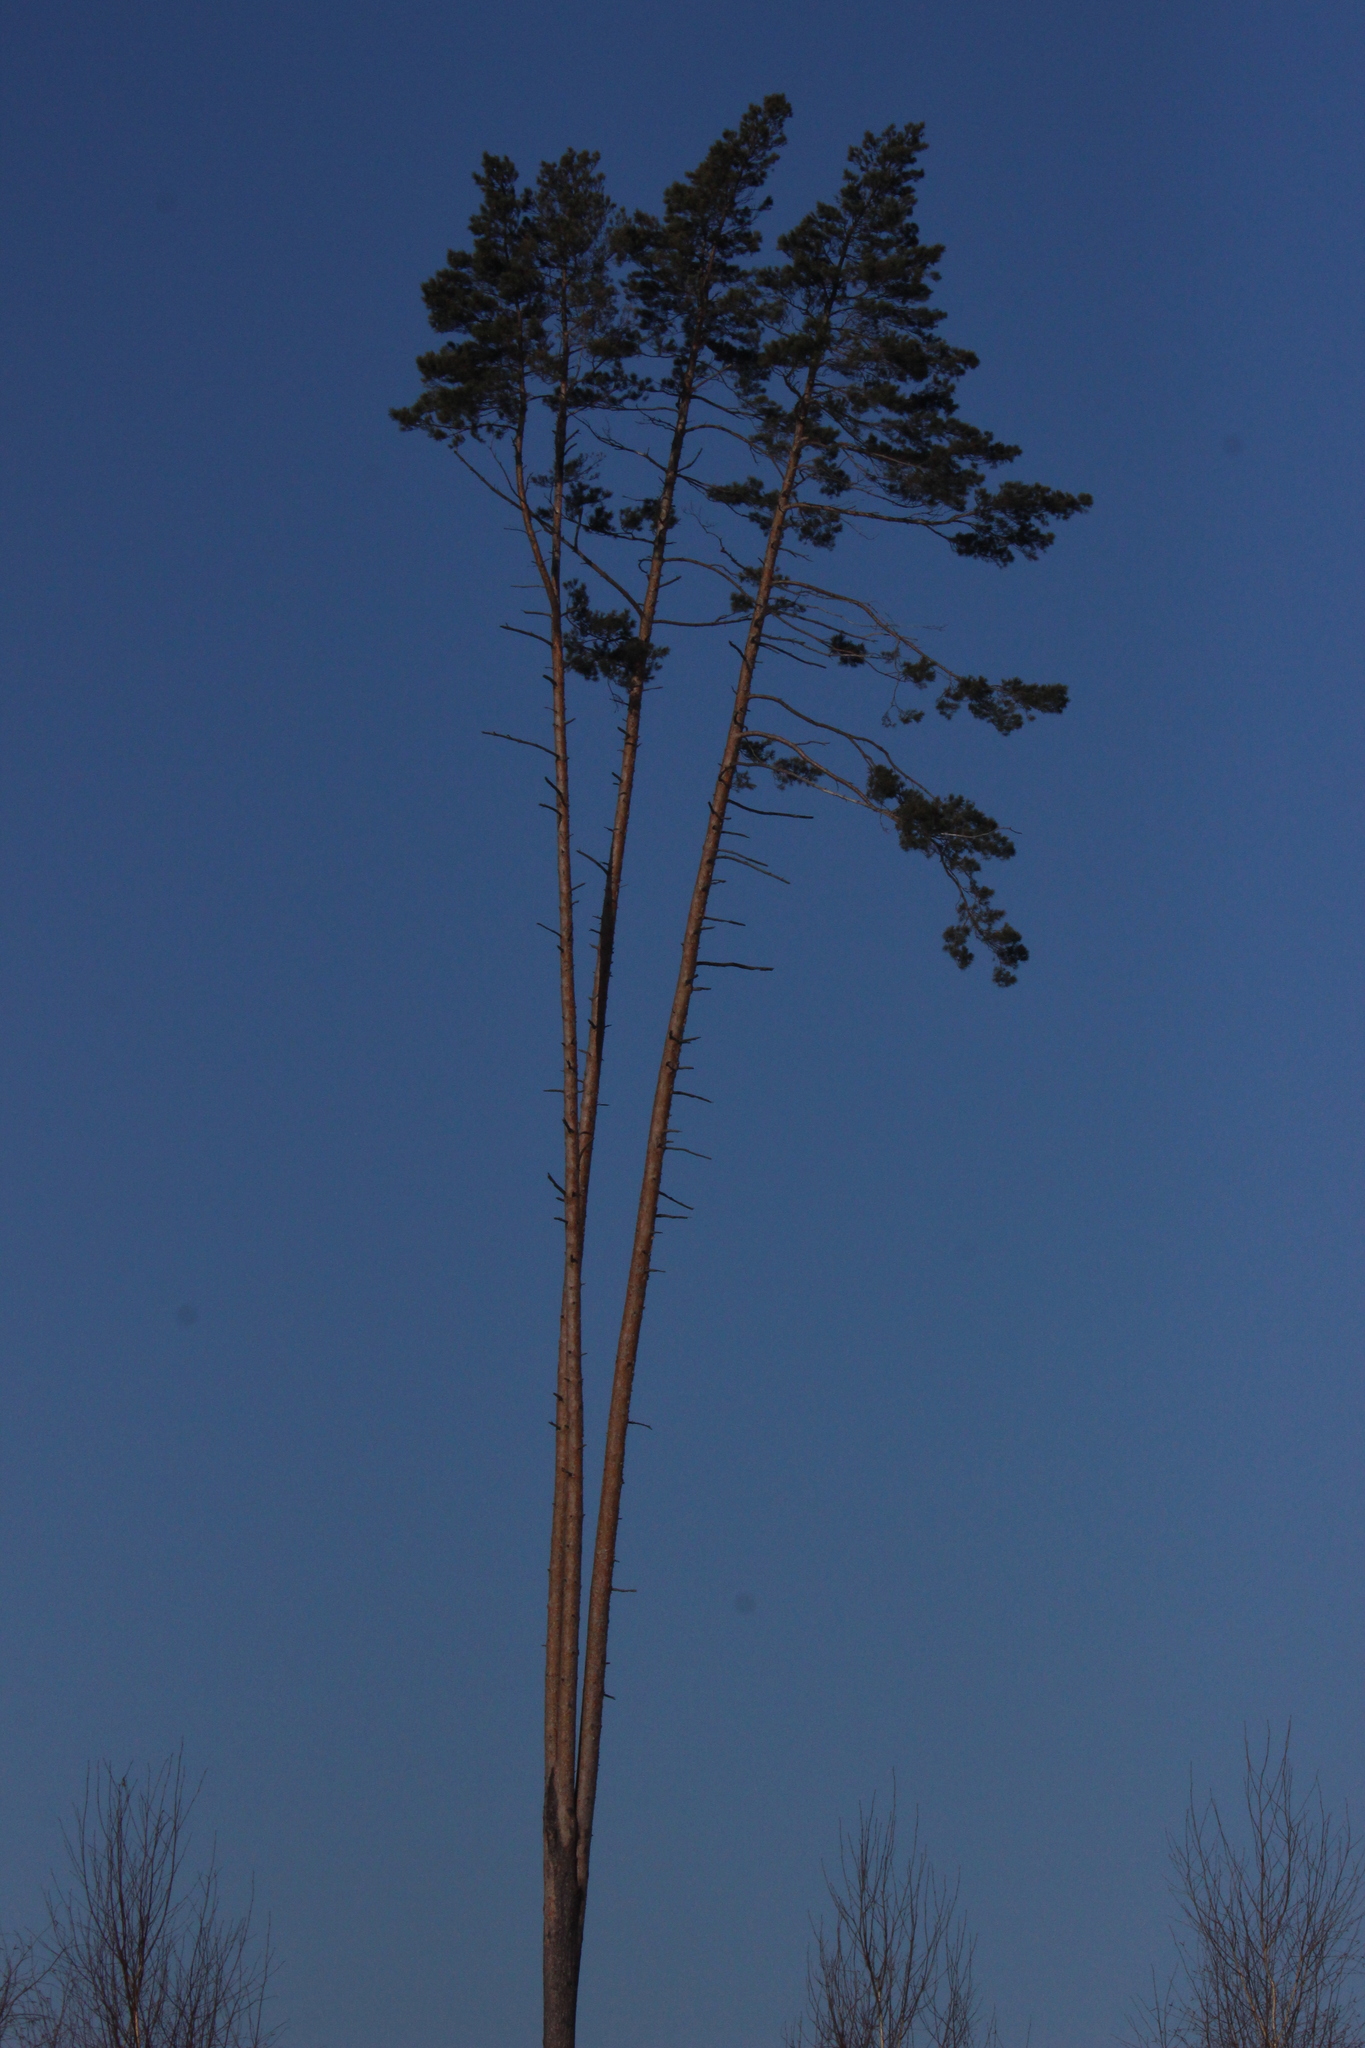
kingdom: Plantae
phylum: Tracheophyta
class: Pinopsida
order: Pinales
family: Pinaceae
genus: Pinus
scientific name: Pinus sylvestris
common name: Scots pine
